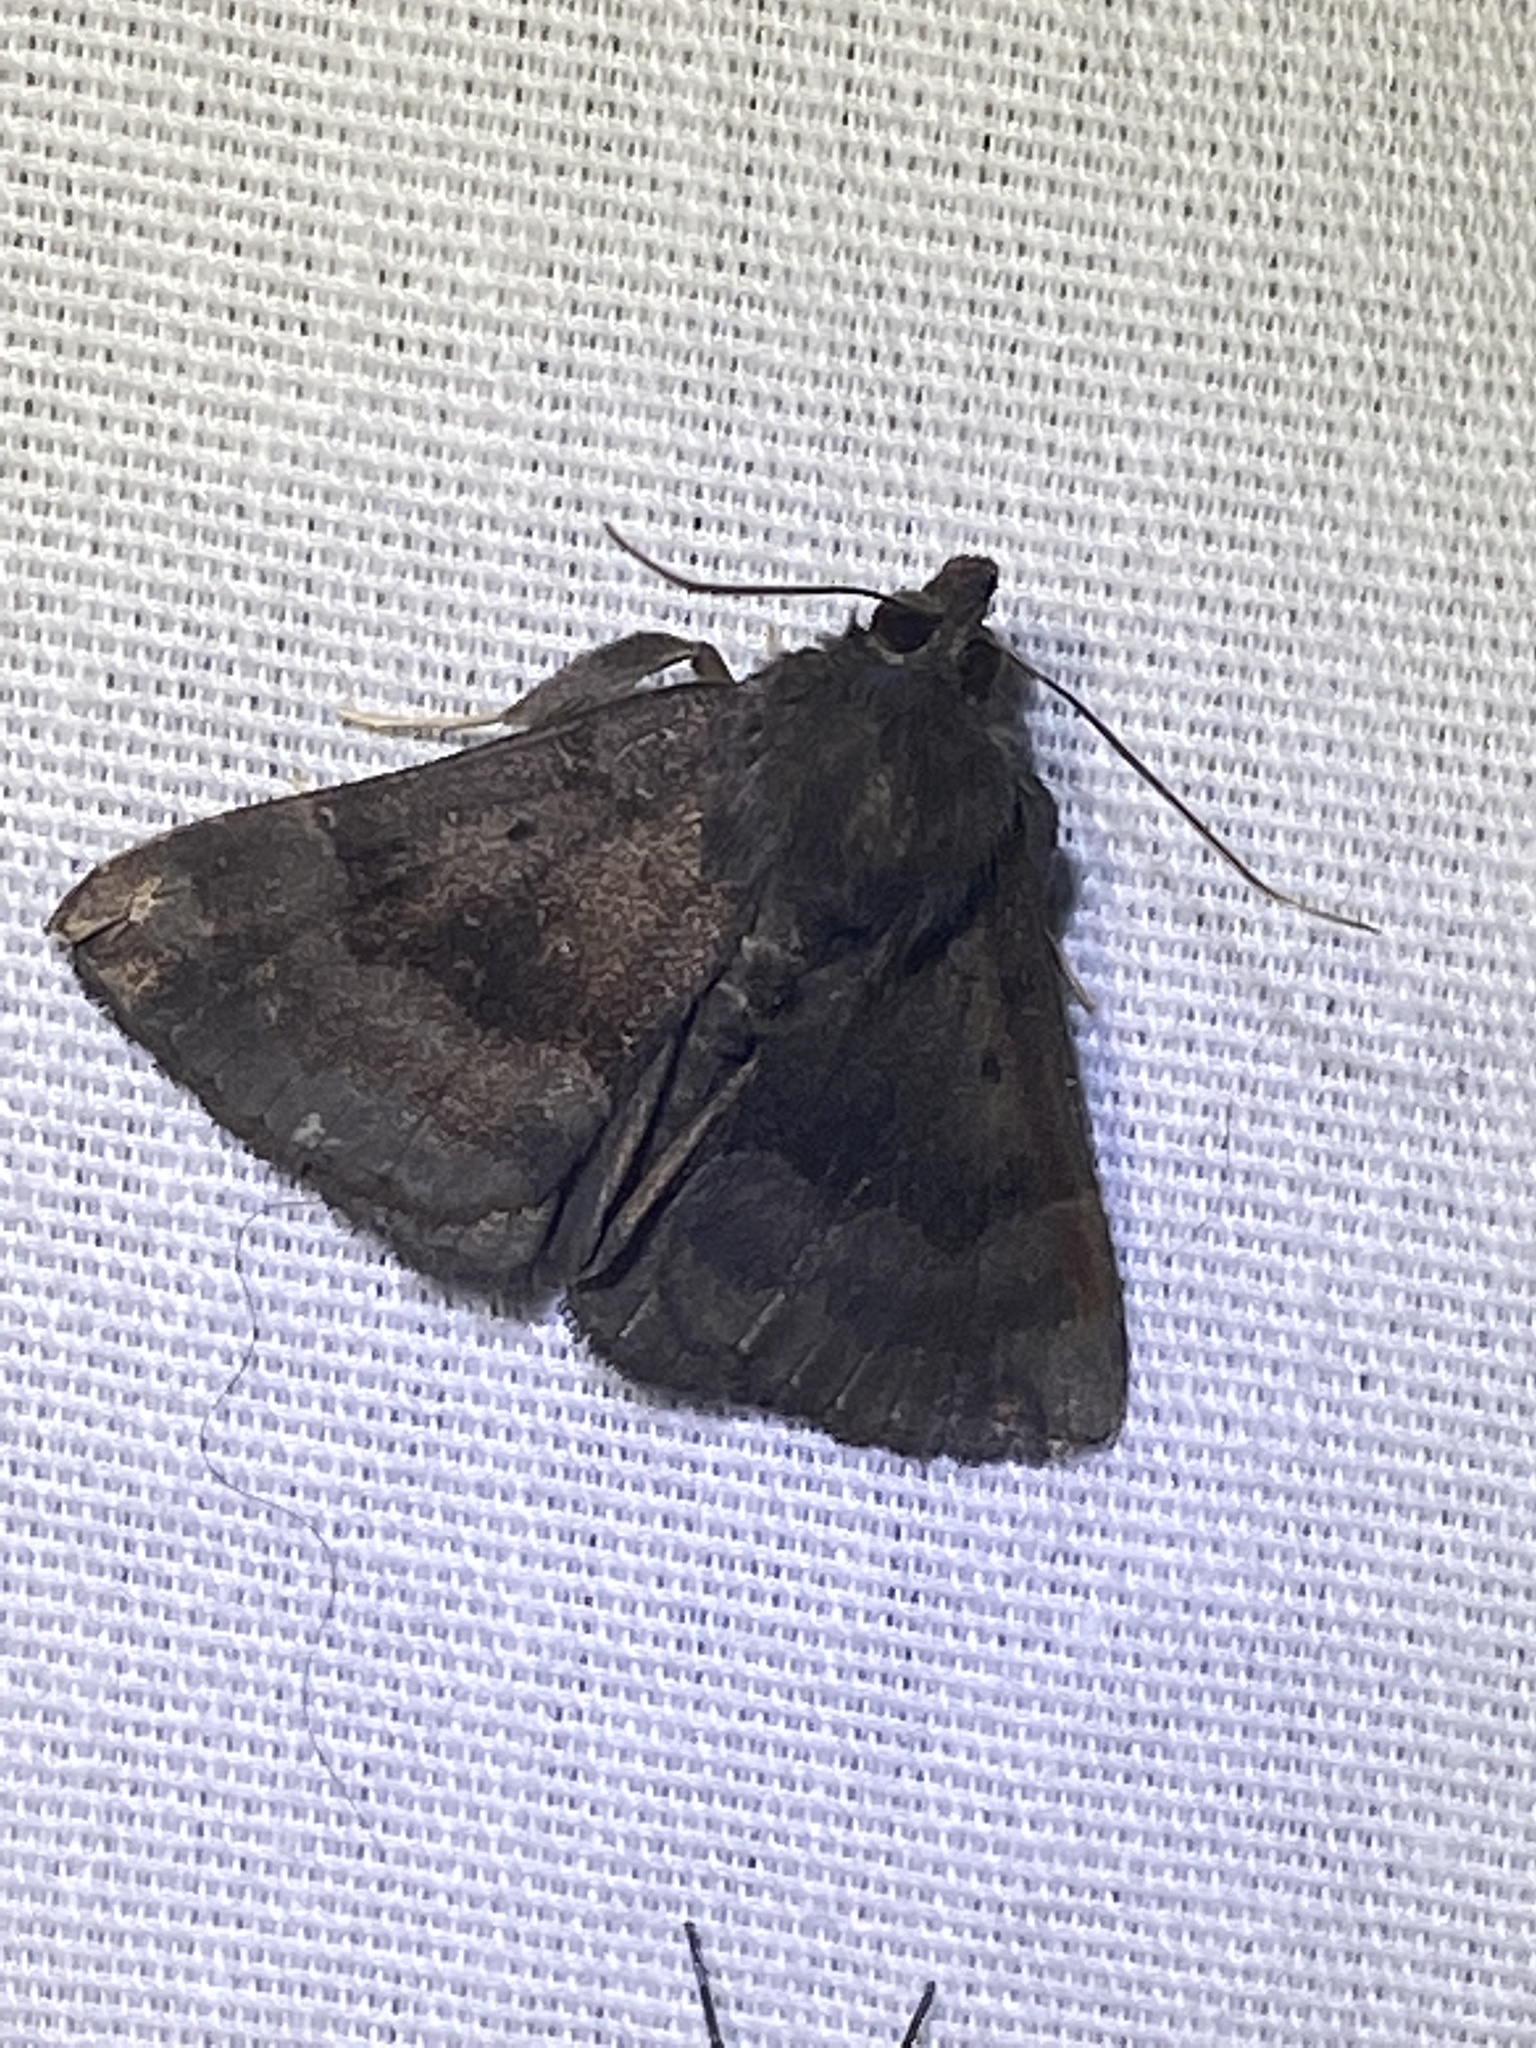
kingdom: Animalia
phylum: Arthropoda
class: Insecta
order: Lepidoptera
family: Erebidae
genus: Hypena
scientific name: Hypena madefactalis
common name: Gray-edged snout
